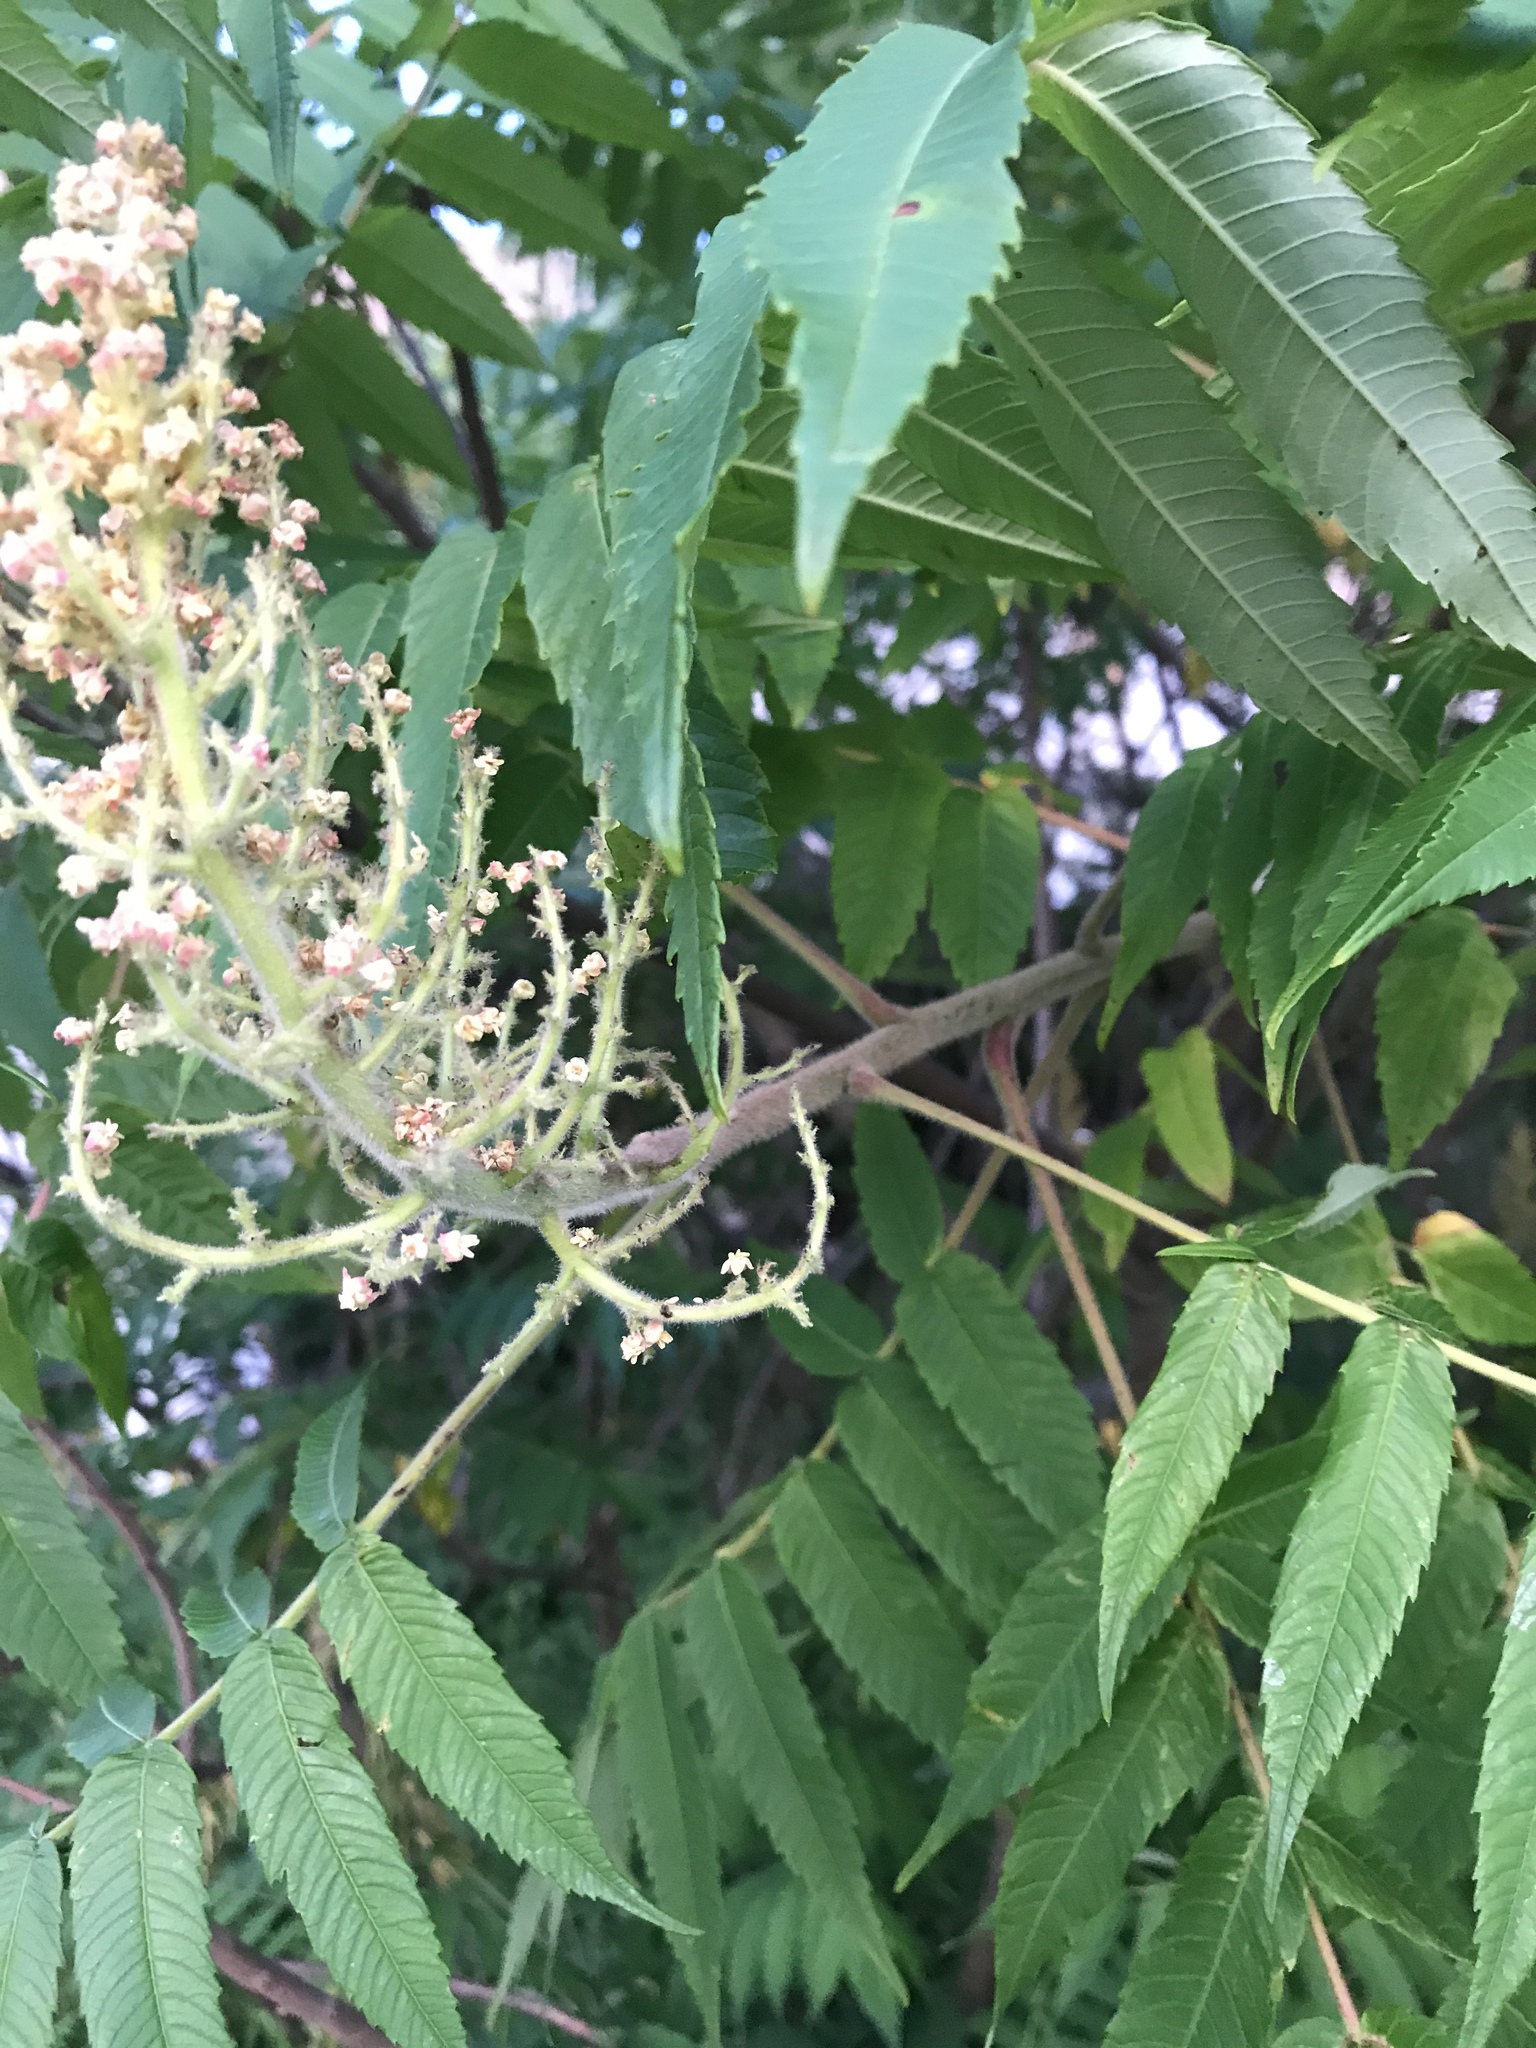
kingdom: Plantae
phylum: Tracheophyta
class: Magnoliopsida
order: Sapindales
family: Anacardiaceae
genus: Rhus
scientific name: Rhus typhina
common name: Staghorn sumac
